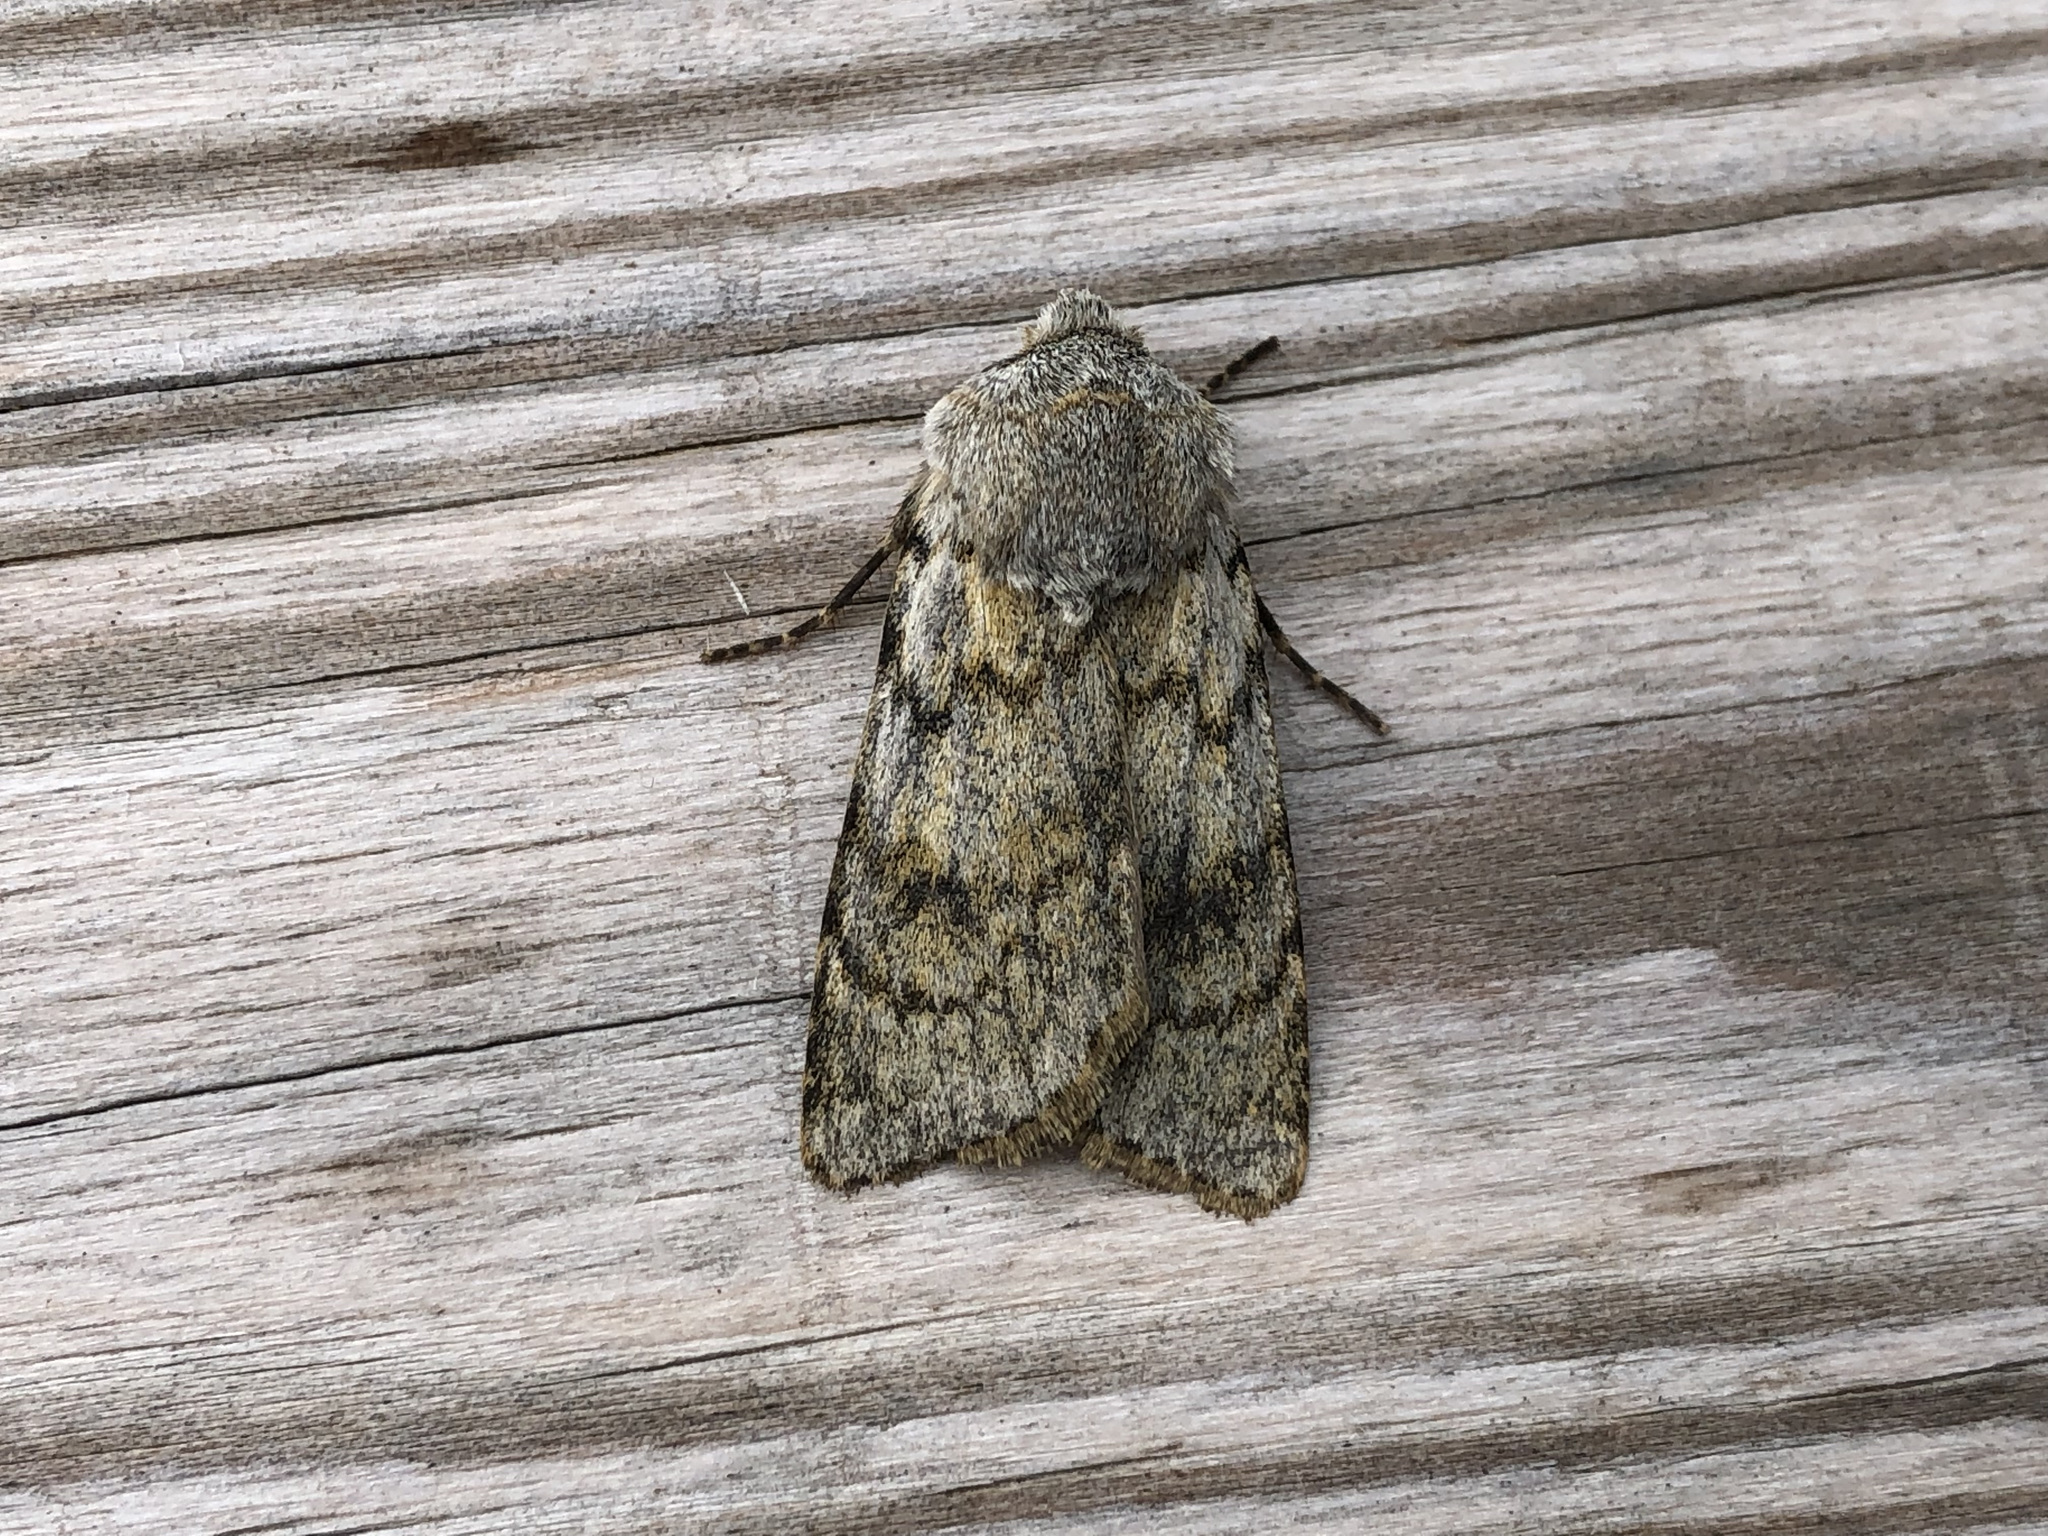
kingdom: Animalia
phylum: Arthropoda
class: Insecta
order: Lepidoptera
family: Noctuidae
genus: Agrotis
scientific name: Agrotis simplonia
